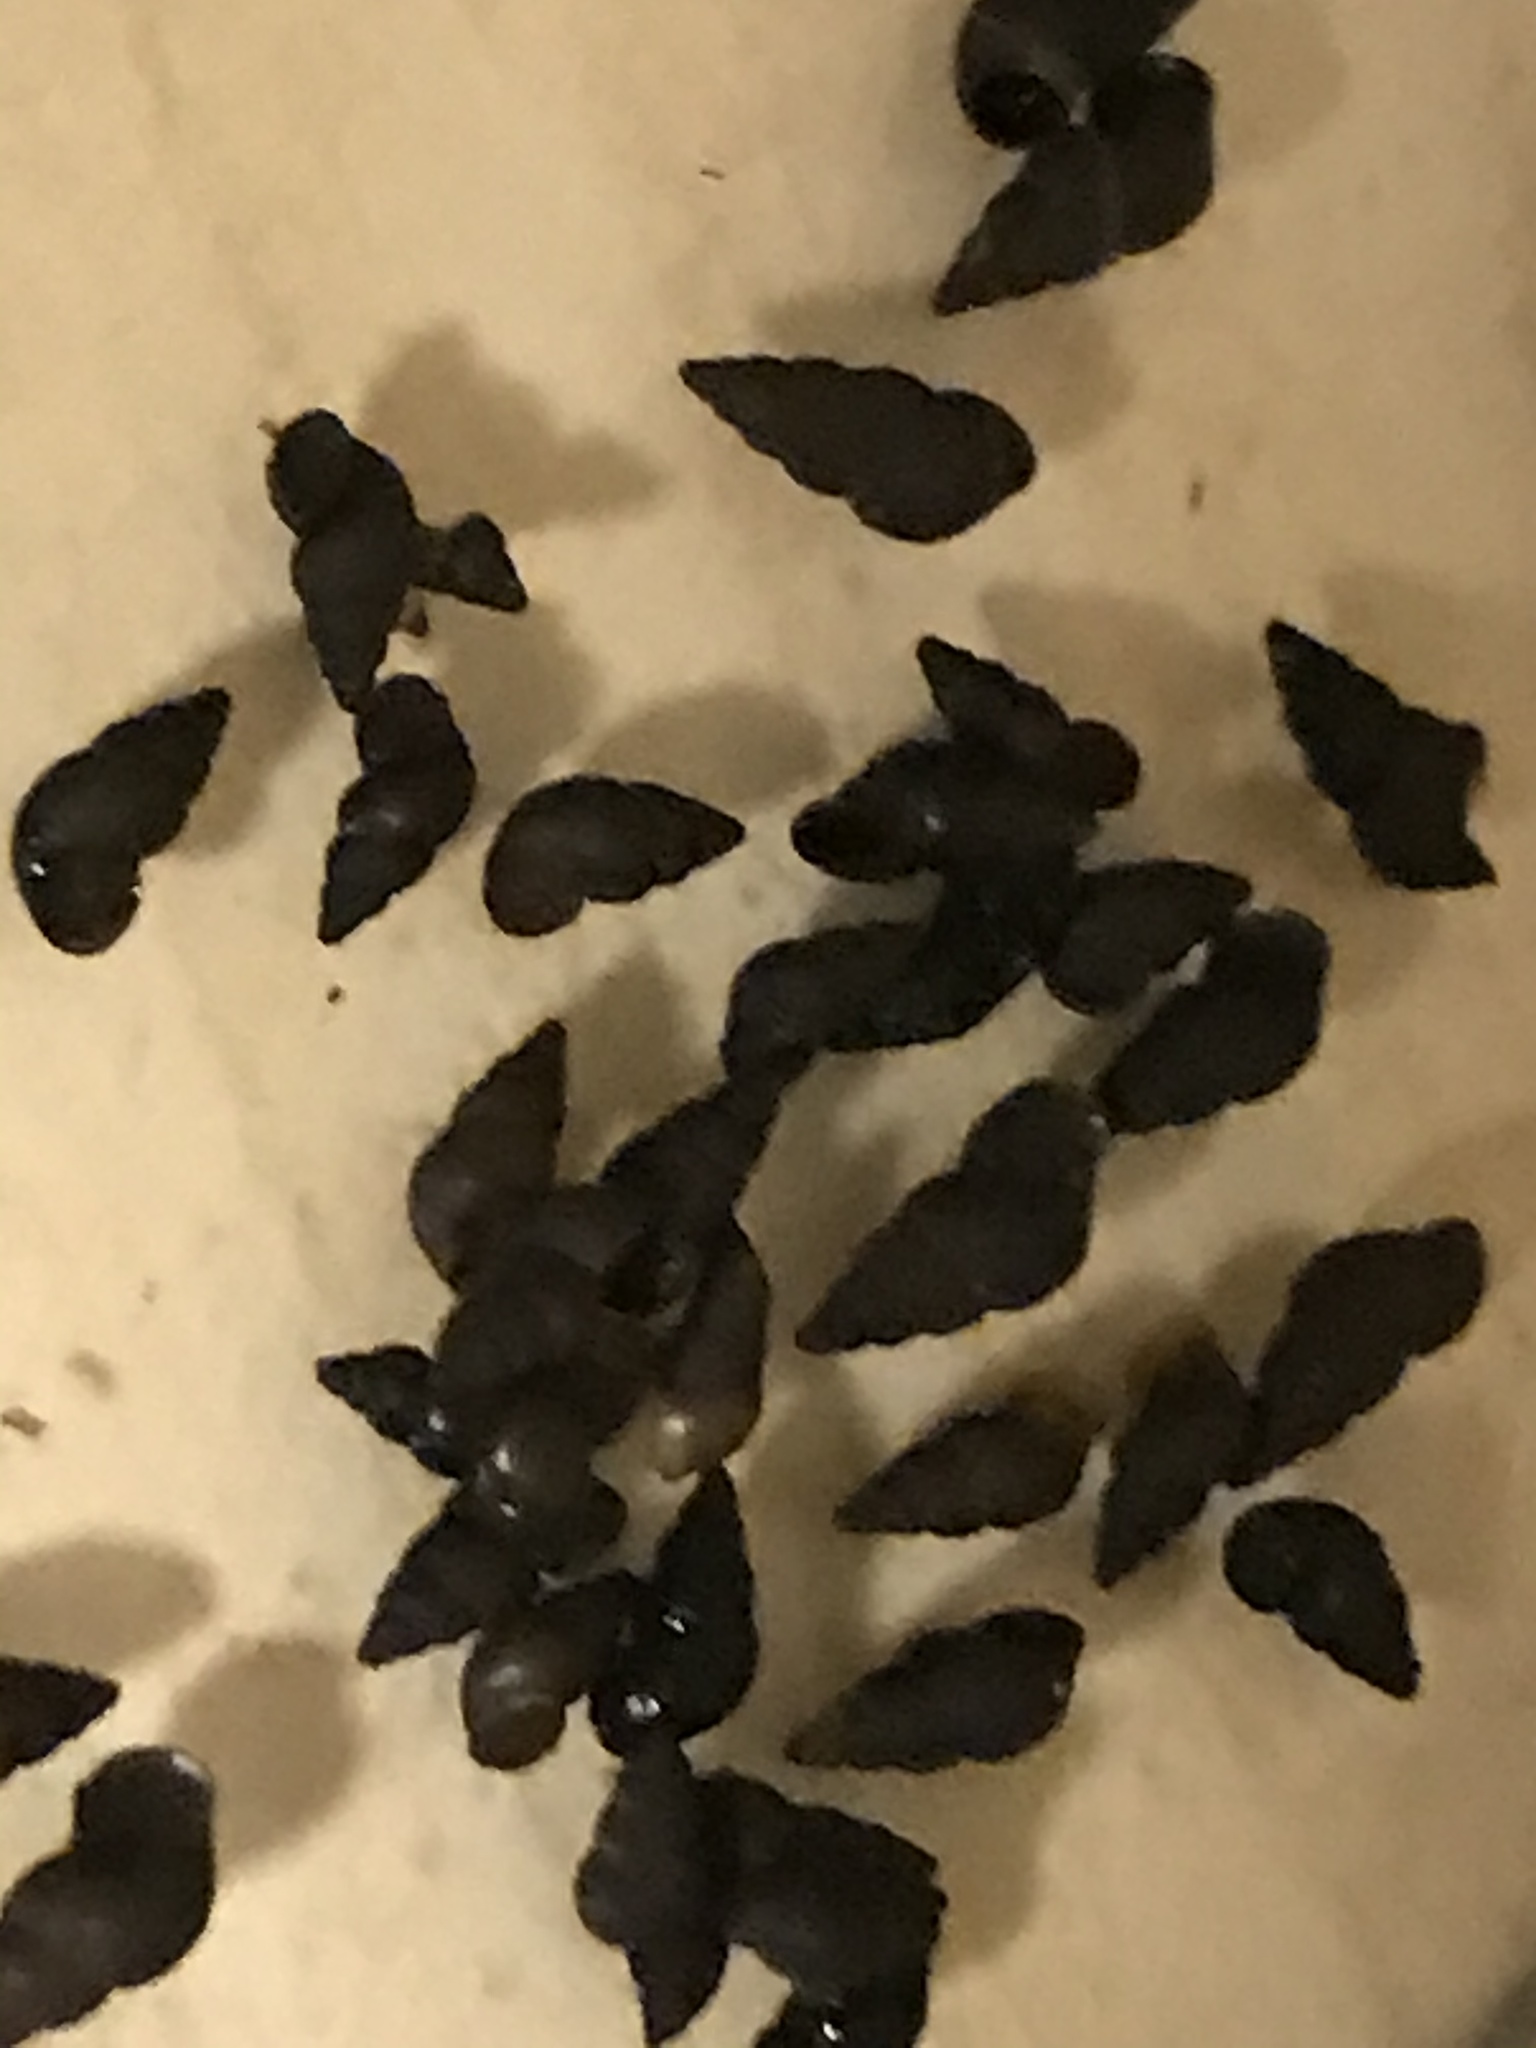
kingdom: Animalia
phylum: Mollusca
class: Gastropoda
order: Littorinimorpha
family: Tateidae
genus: Potamopyrgus
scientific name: Potamopyrgus antipodarum
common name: Jenkins' spire snail
